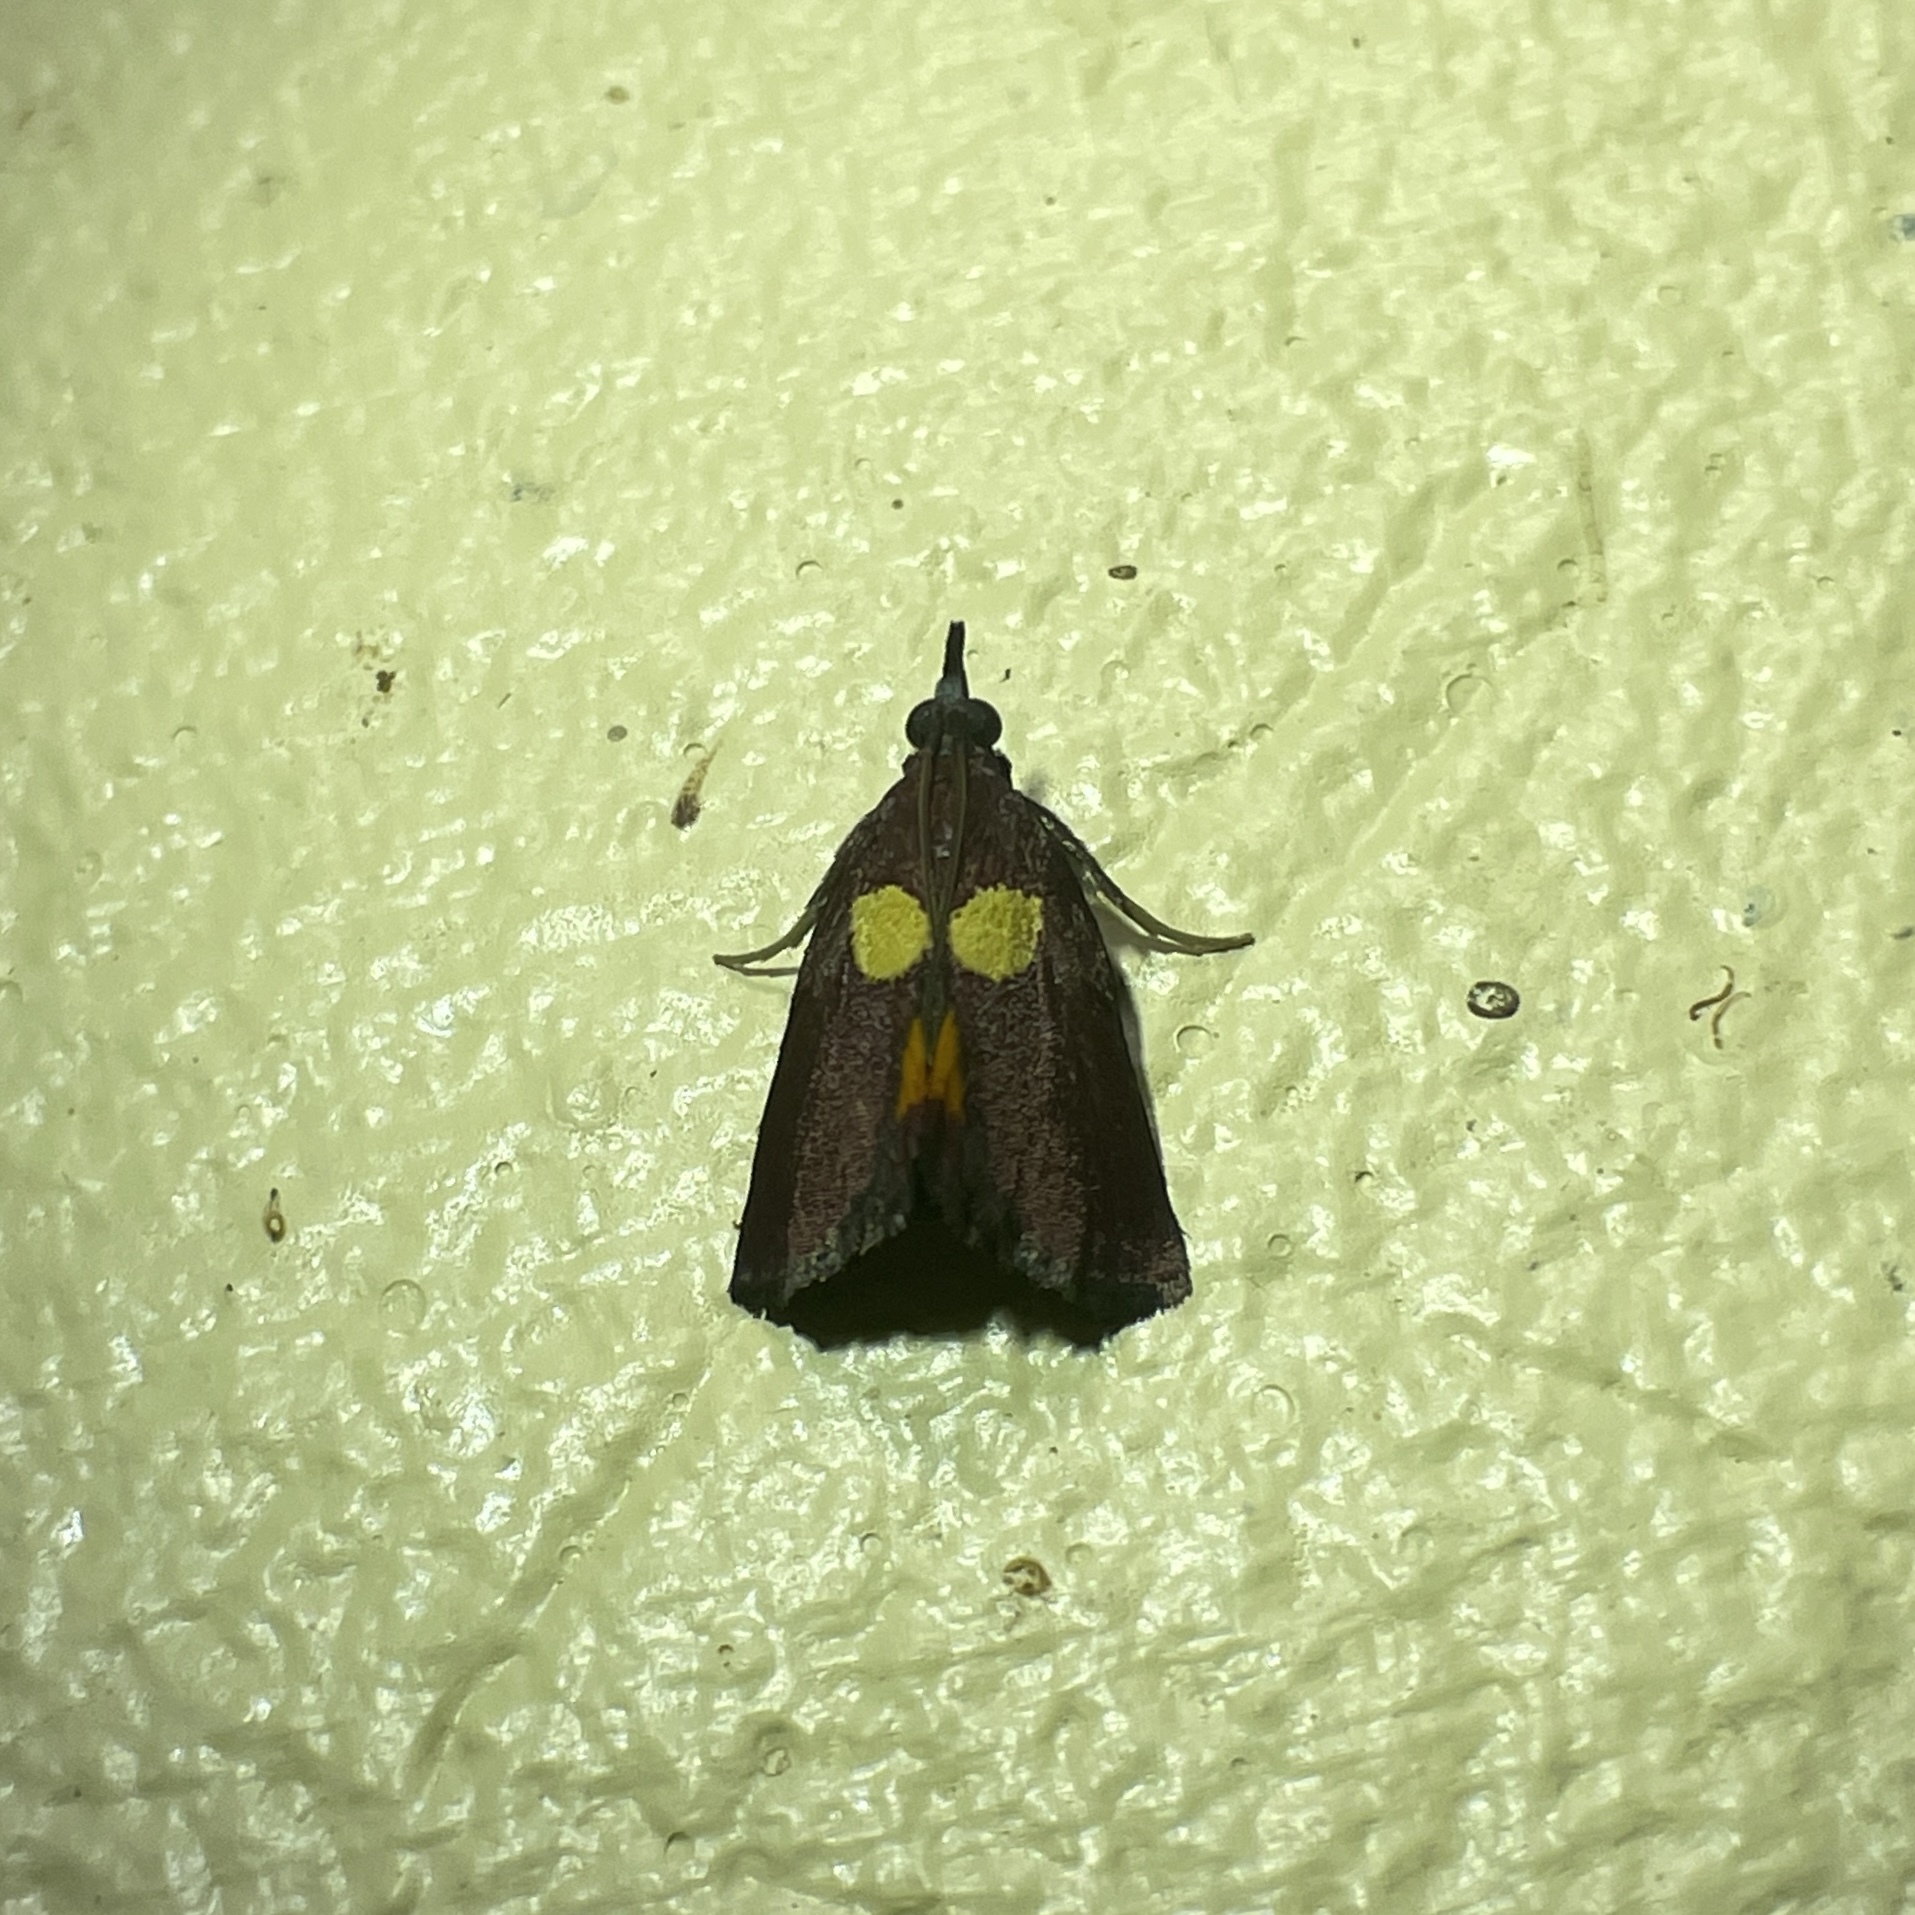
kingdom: Animalia
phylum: Arthropoda
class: Insecta
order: Lepidoptera
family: Pyralidae
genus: Semnia
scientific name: Semnia auritalis
